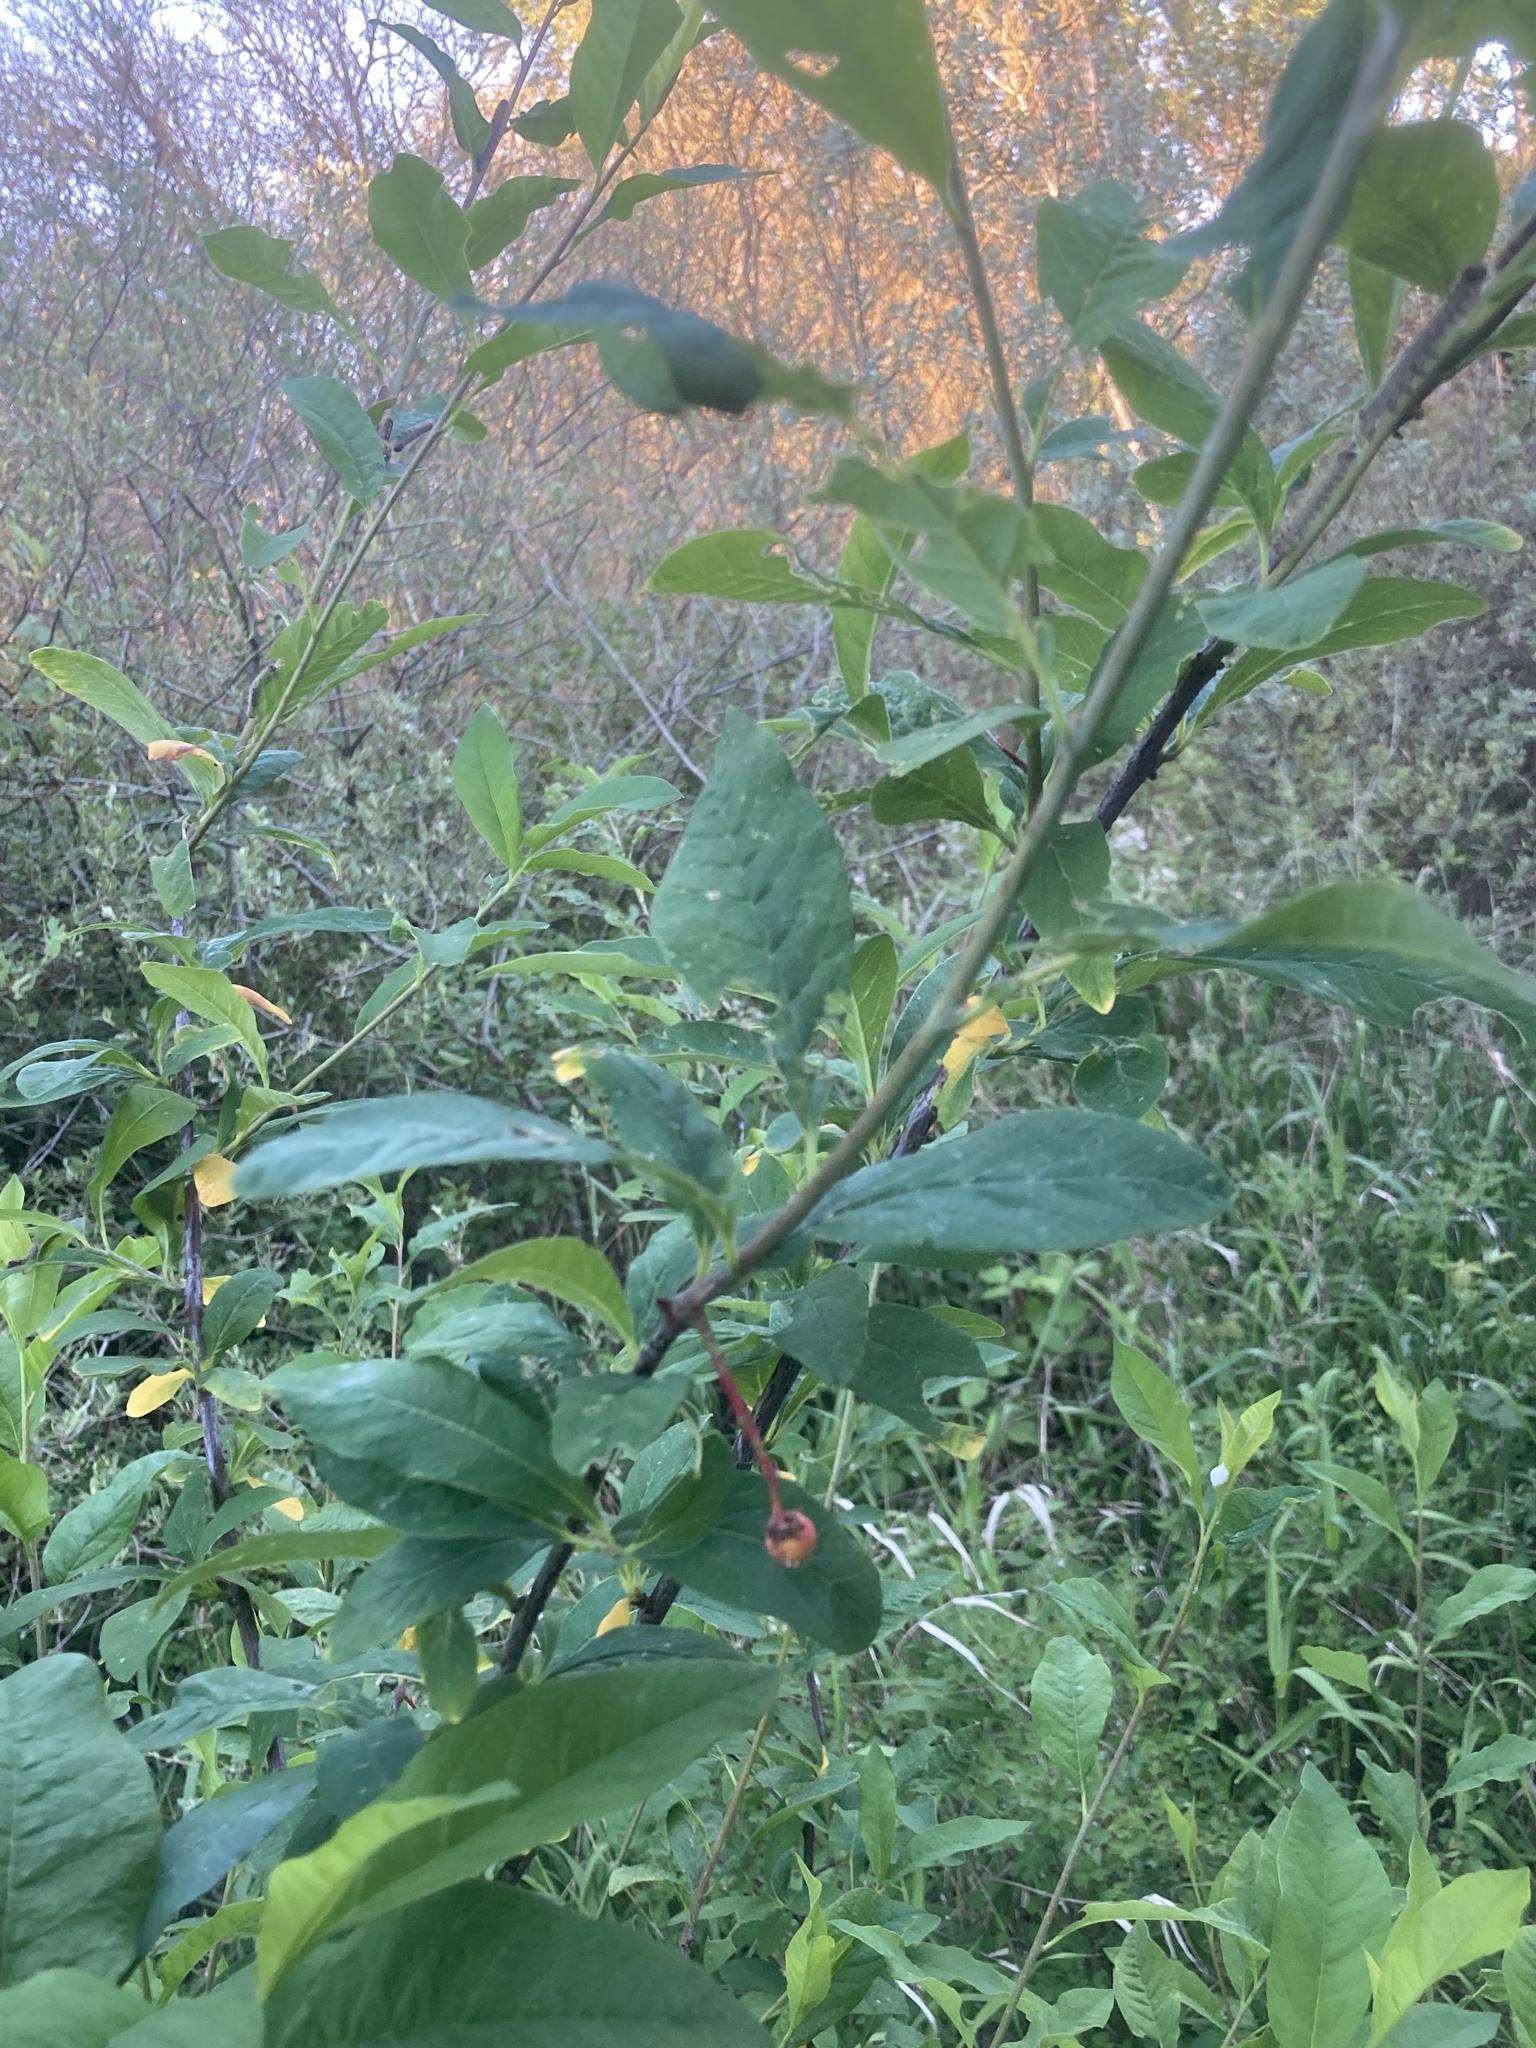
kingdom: Plantae
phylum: Tracheophyta
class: Magnoliopsida
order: Rosales
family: Rosaceae
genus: Oemleria
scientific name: Oemleria cerasiformis
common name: Osoberry
